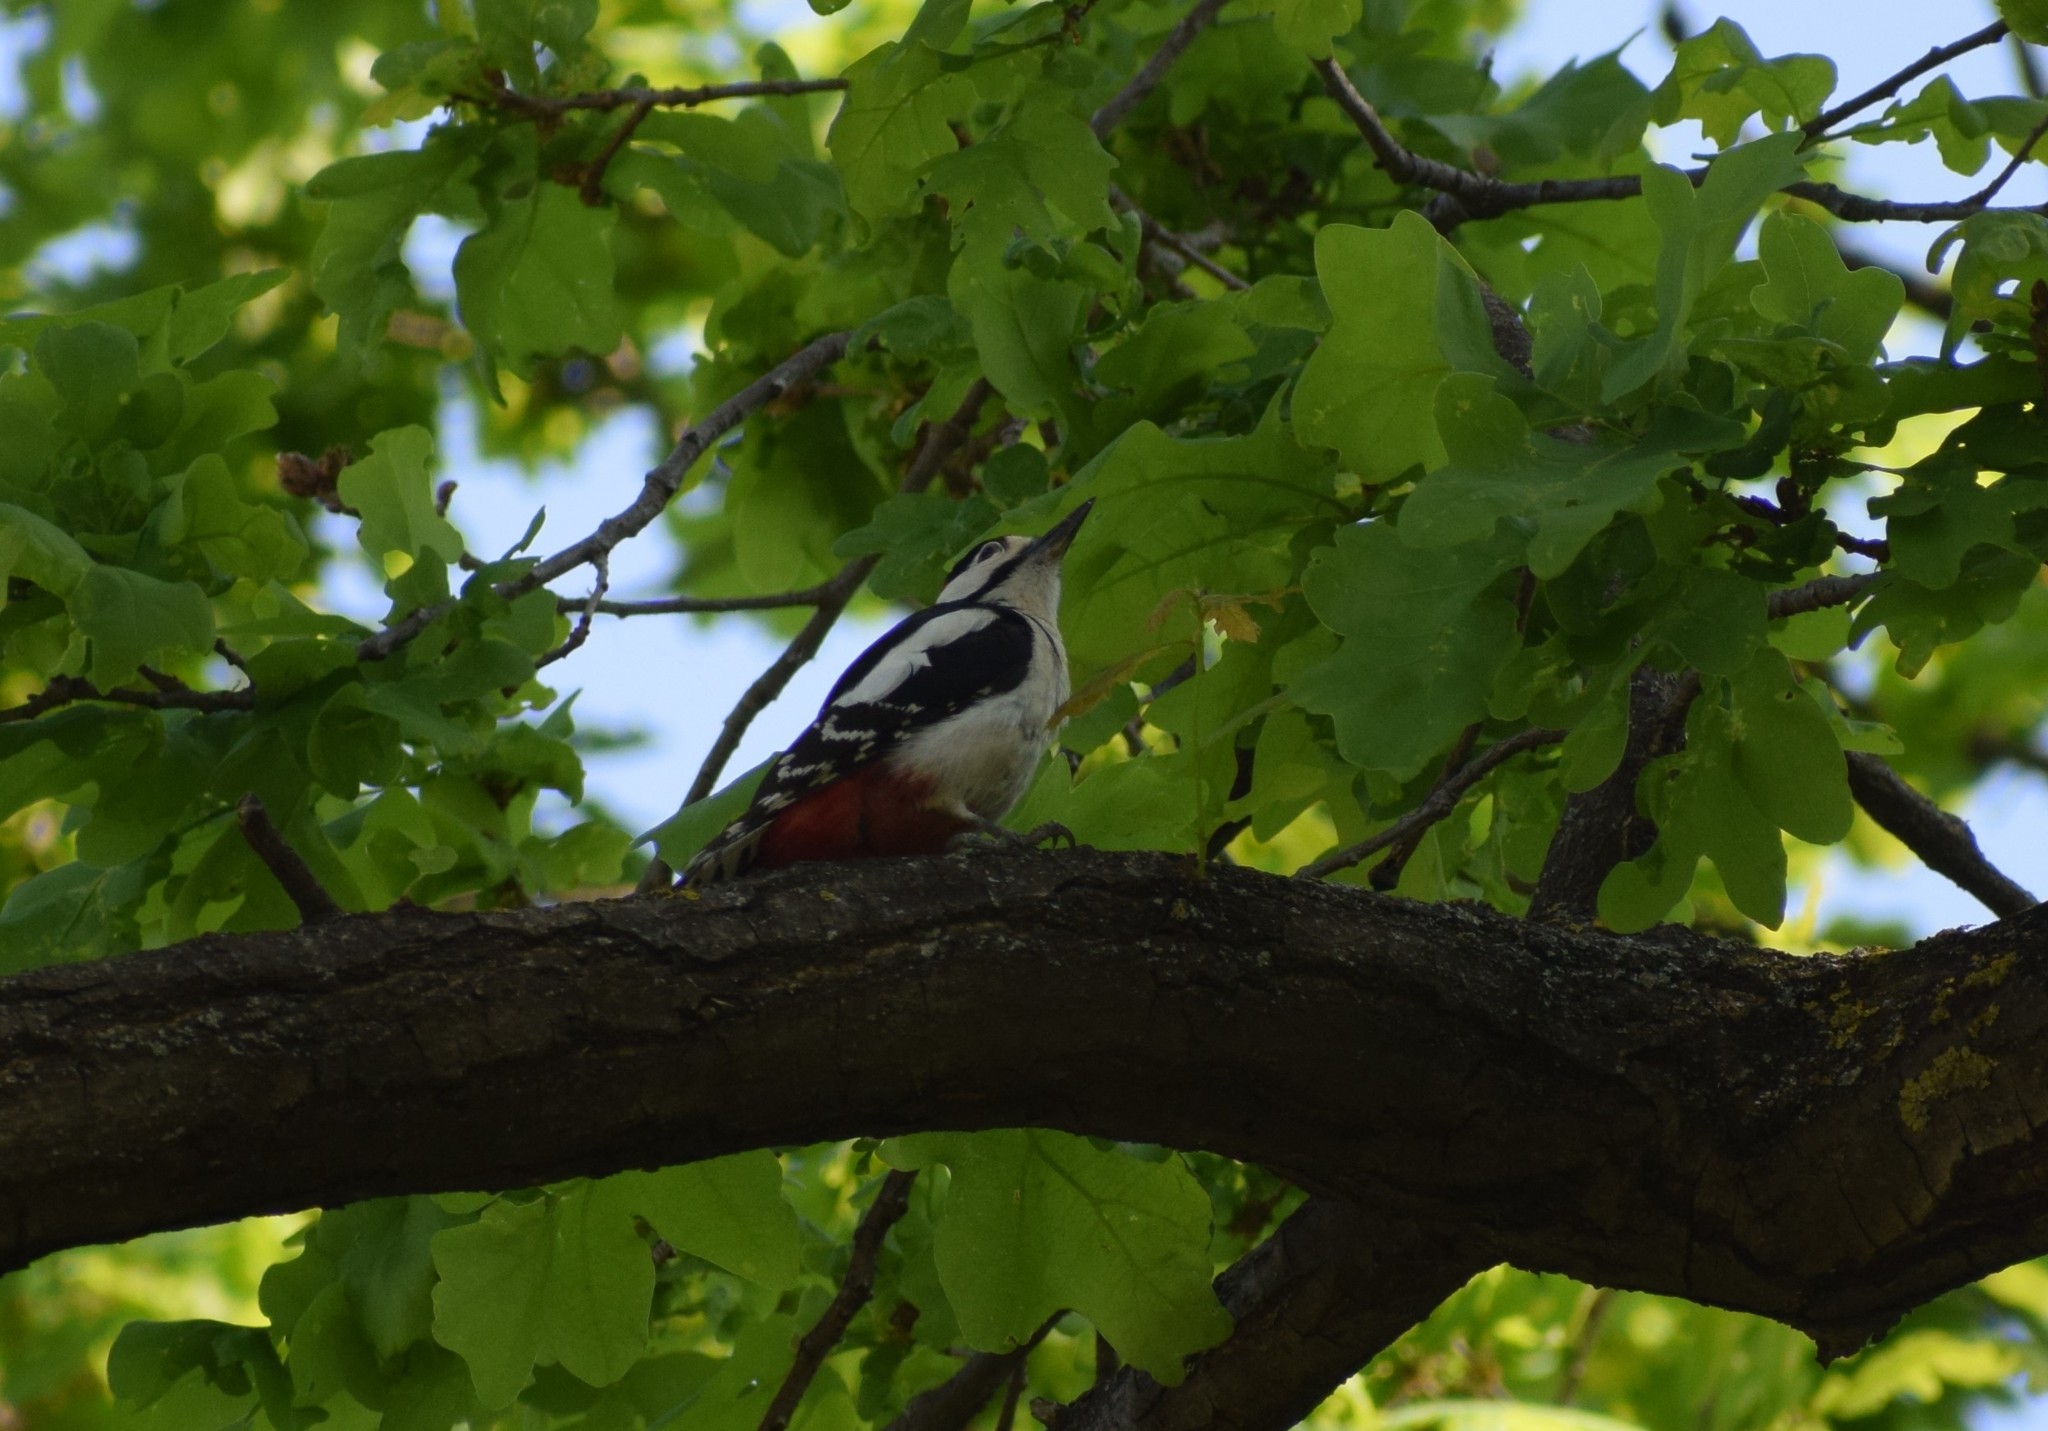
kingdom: Animalia
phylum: Chordata
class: Aves
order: Piciformes
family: Picidae
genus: Dendrocopos
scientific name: Dendrocopos major
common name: Great spotted woodpecker
